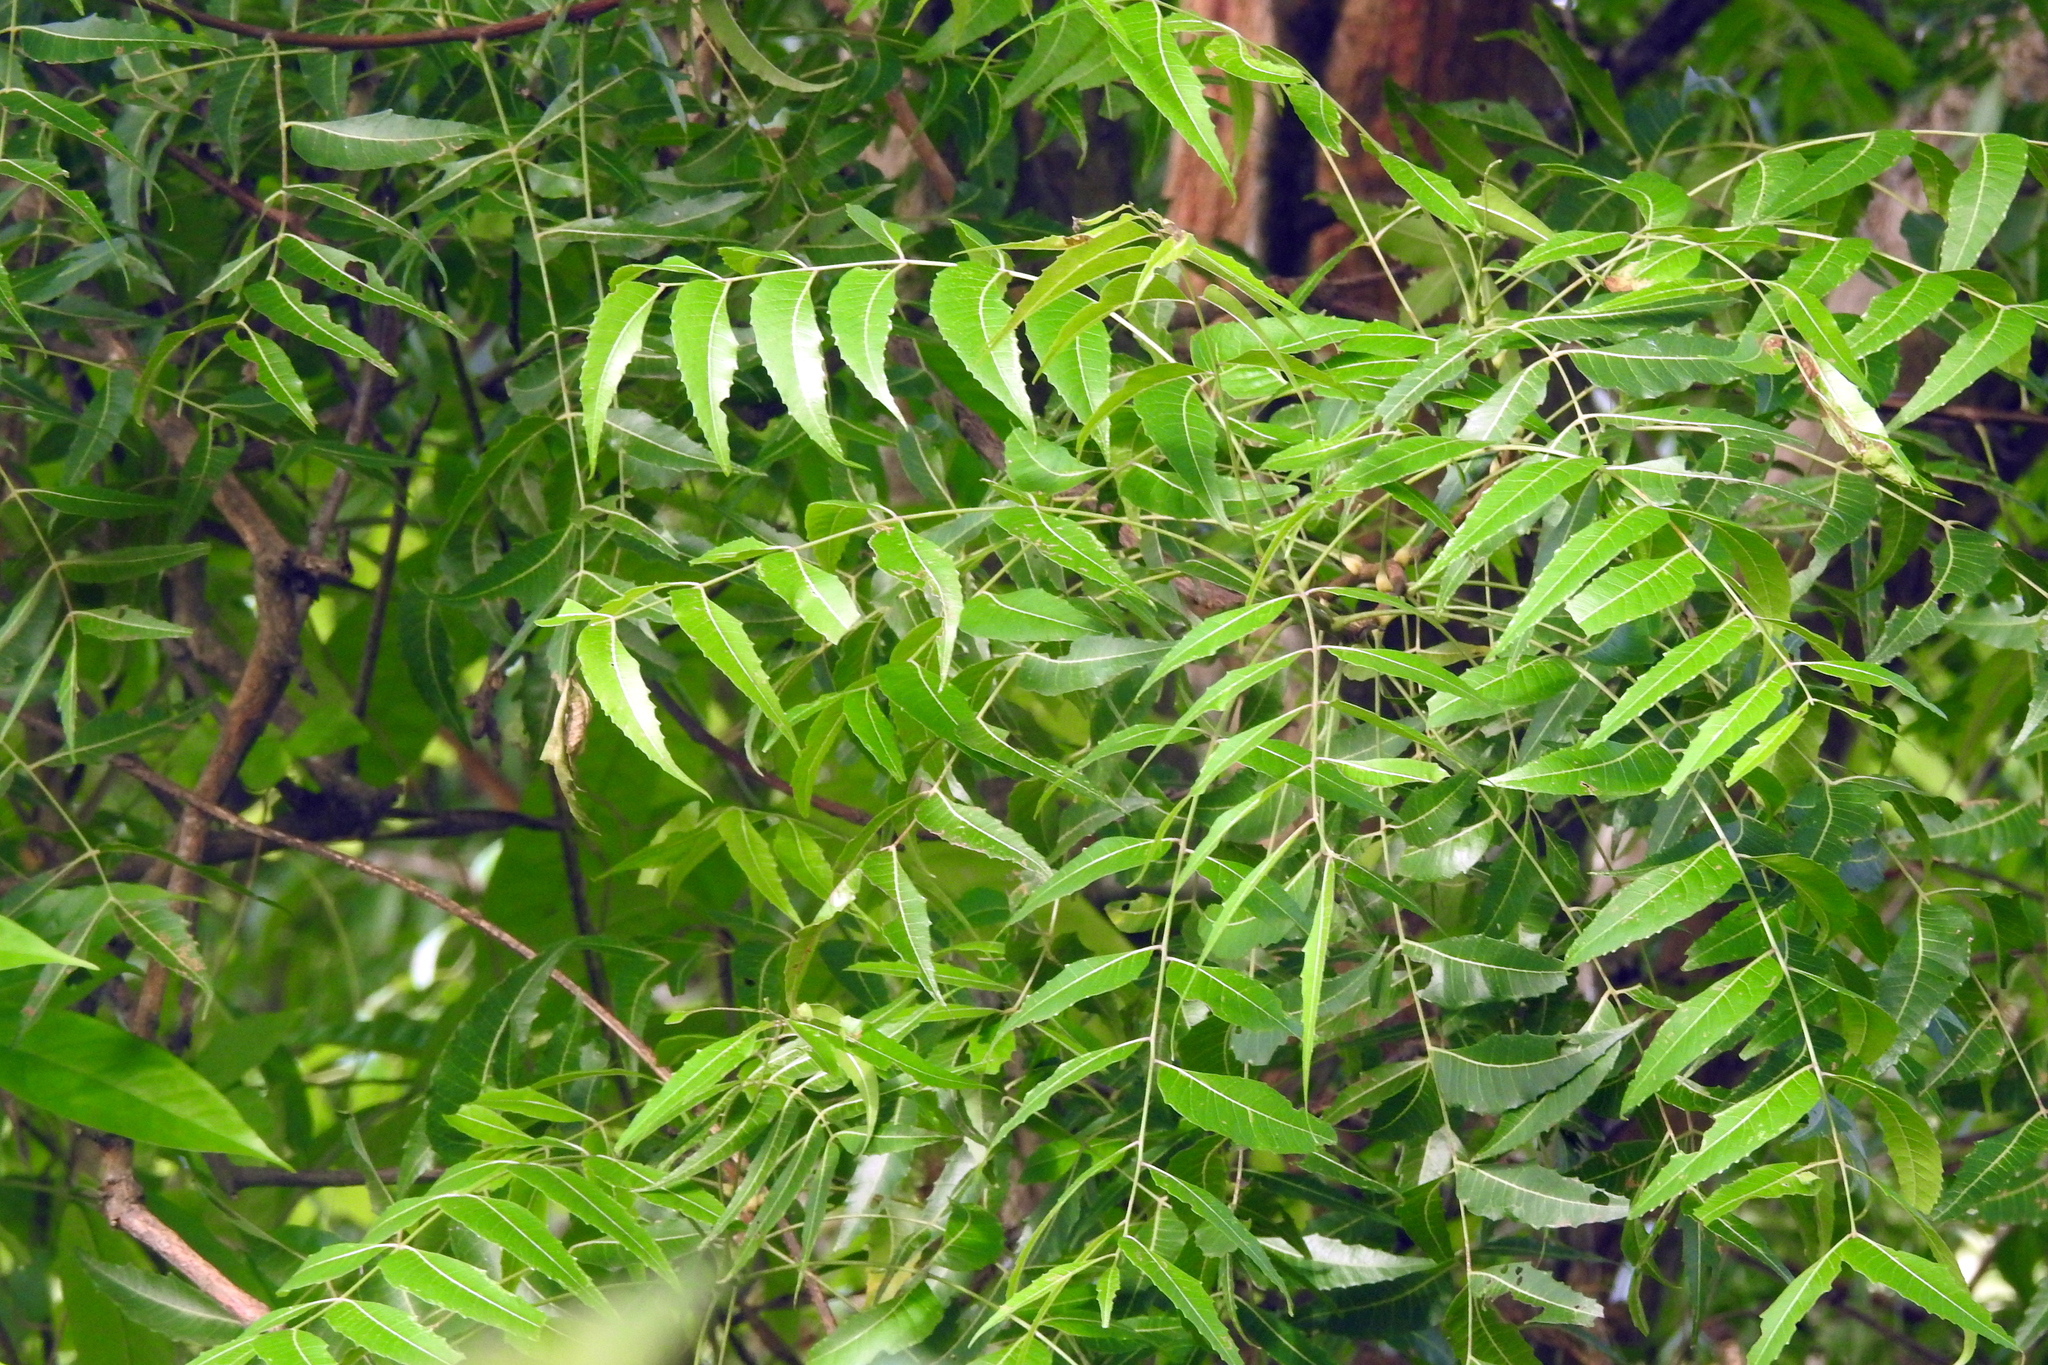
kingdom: Plantae
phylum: Tracheophyta
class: Magnoliopsida
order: Sapindales
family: Meliaceae
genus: Azadirachta
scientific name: Azadirachta indica
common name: Neem
